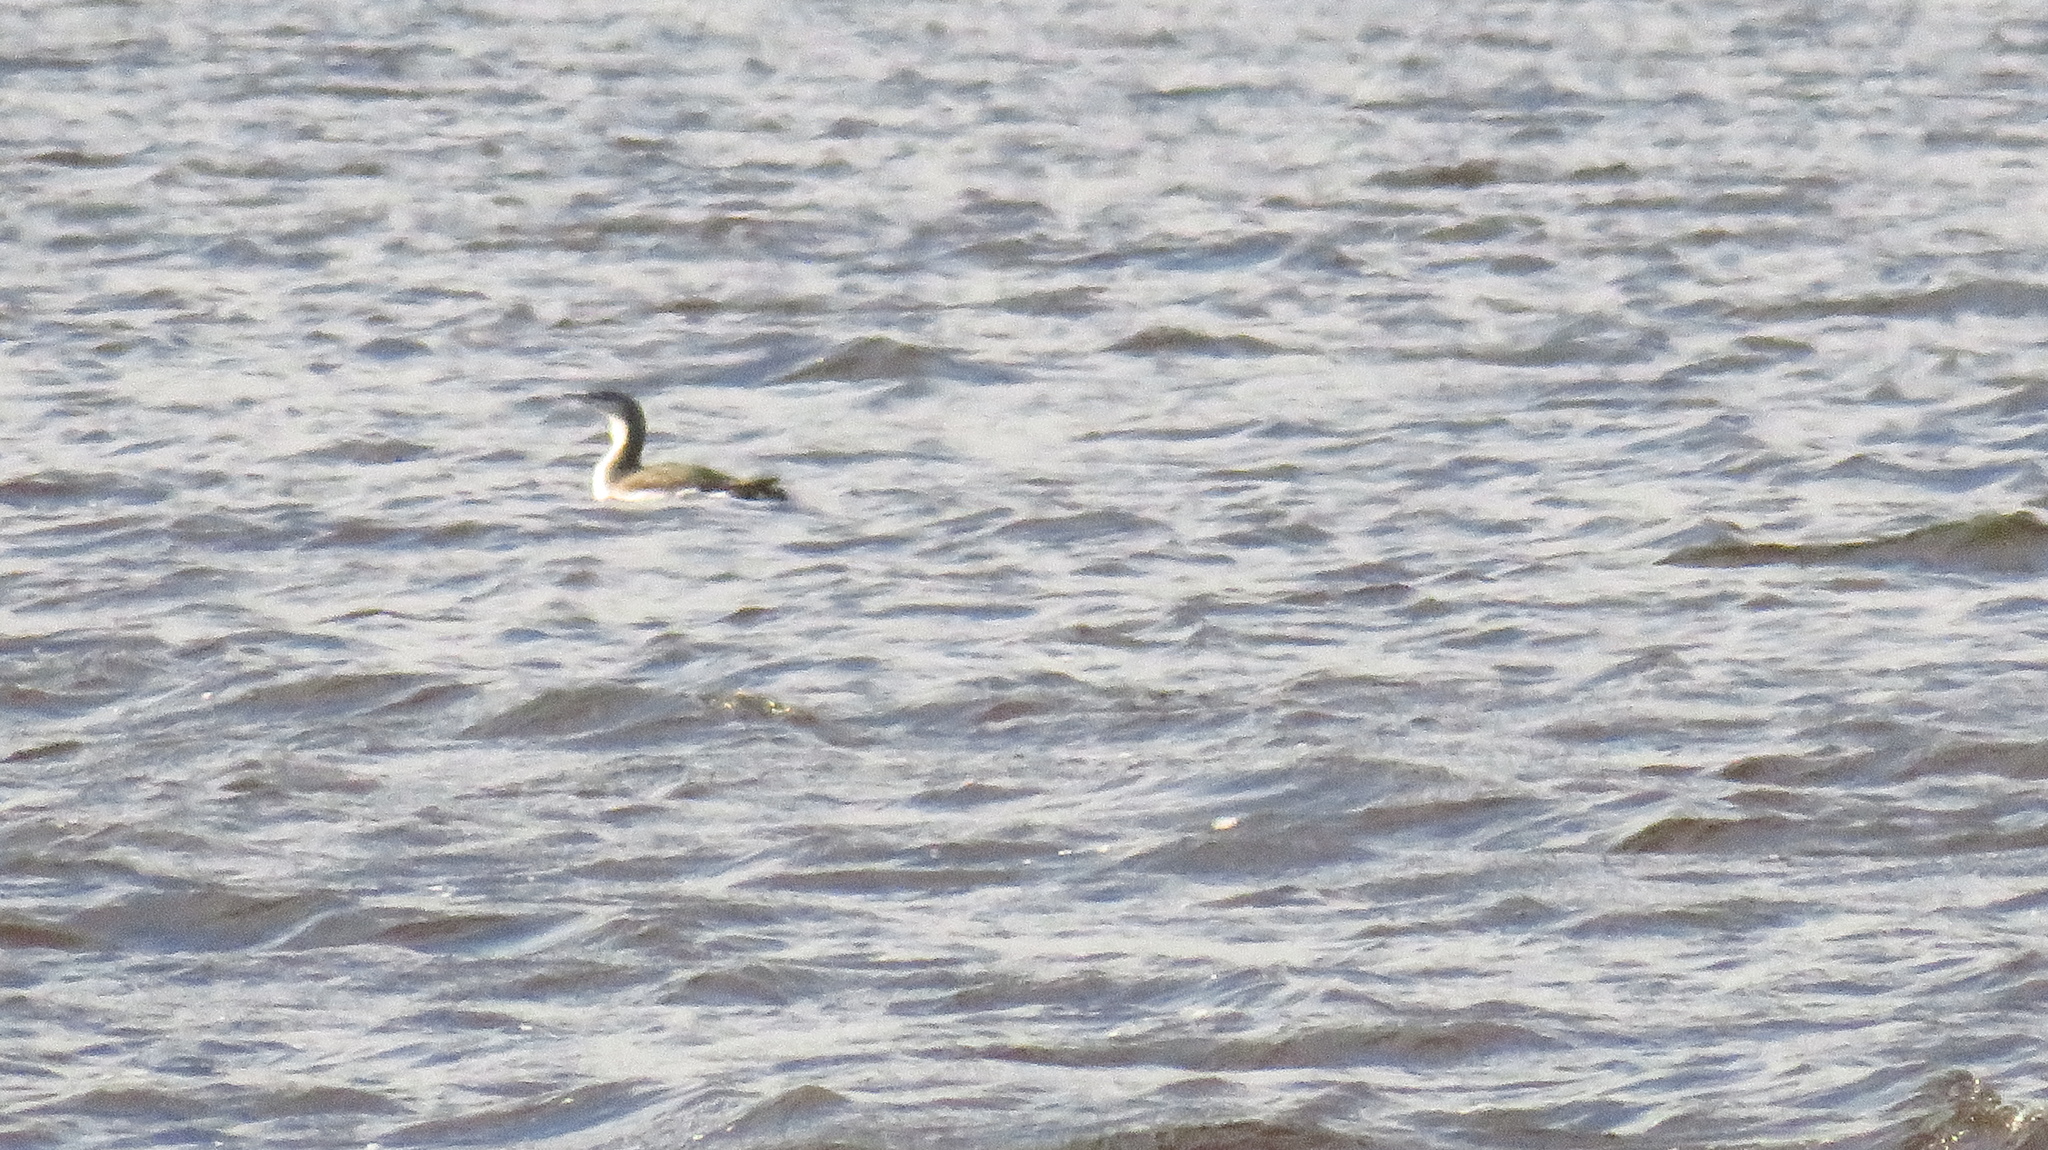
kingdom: Animalia
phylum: Chordata
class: Aves
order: Gaviiformes
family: Gaviidae
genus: Gavia
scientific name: Gavia arctica
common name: Black-throated loon
